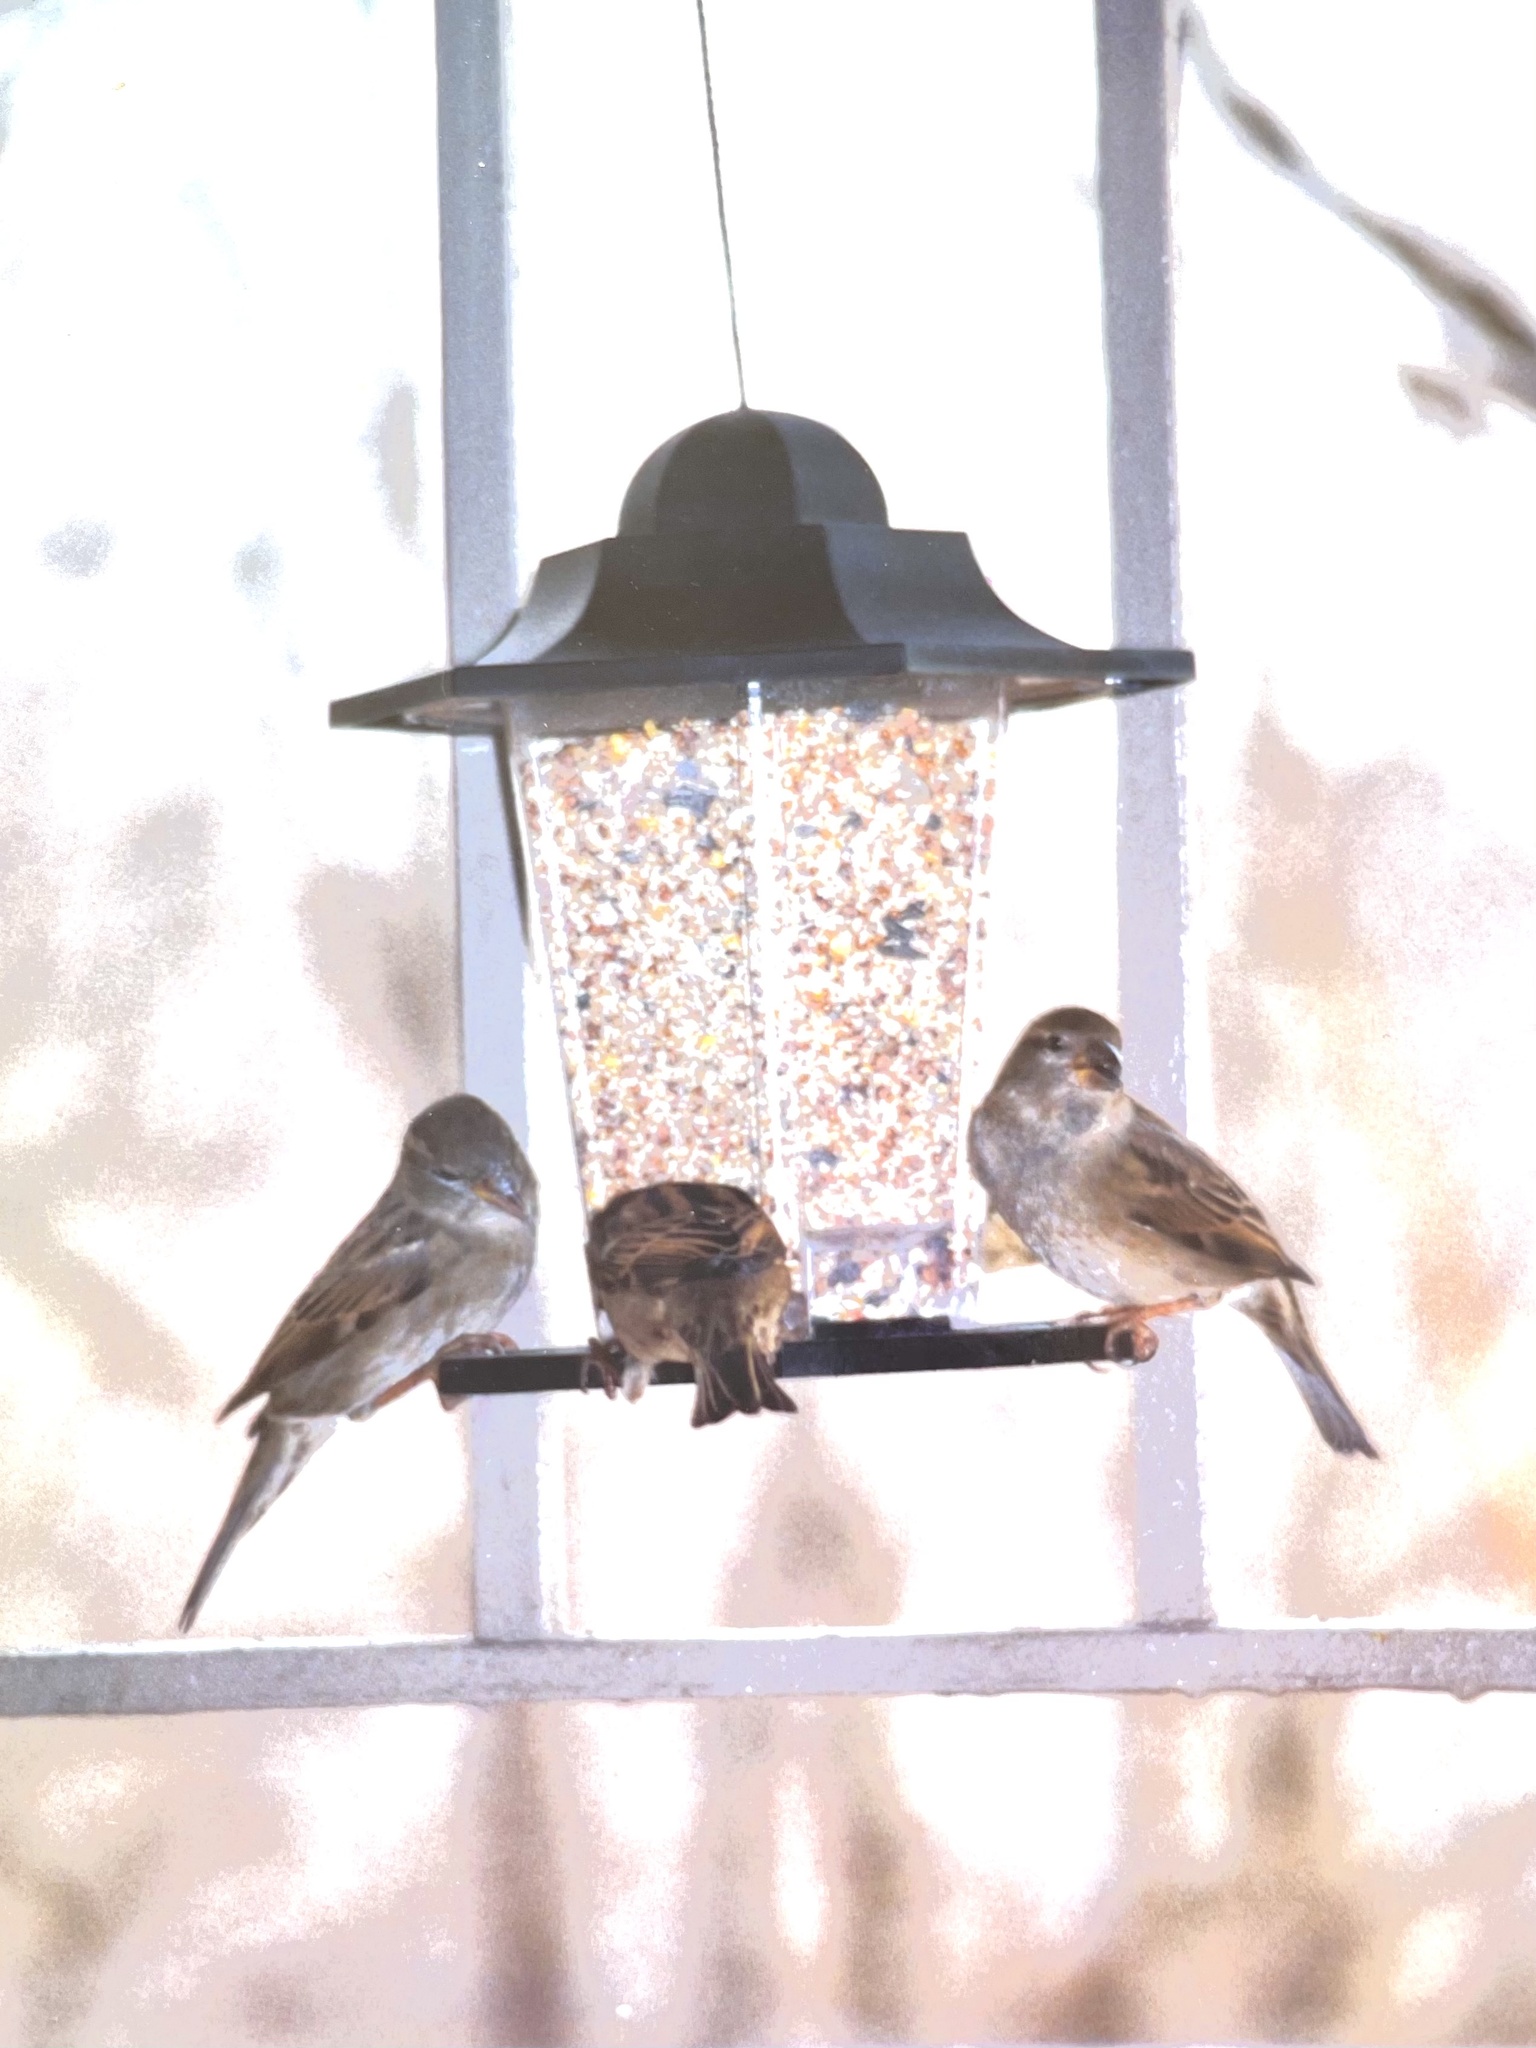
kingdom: Animalia
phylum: Chordata
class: Aves
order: Passeriformes
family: Passeridae
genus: Passer
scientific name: Passer domesticus
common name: House sparrow
